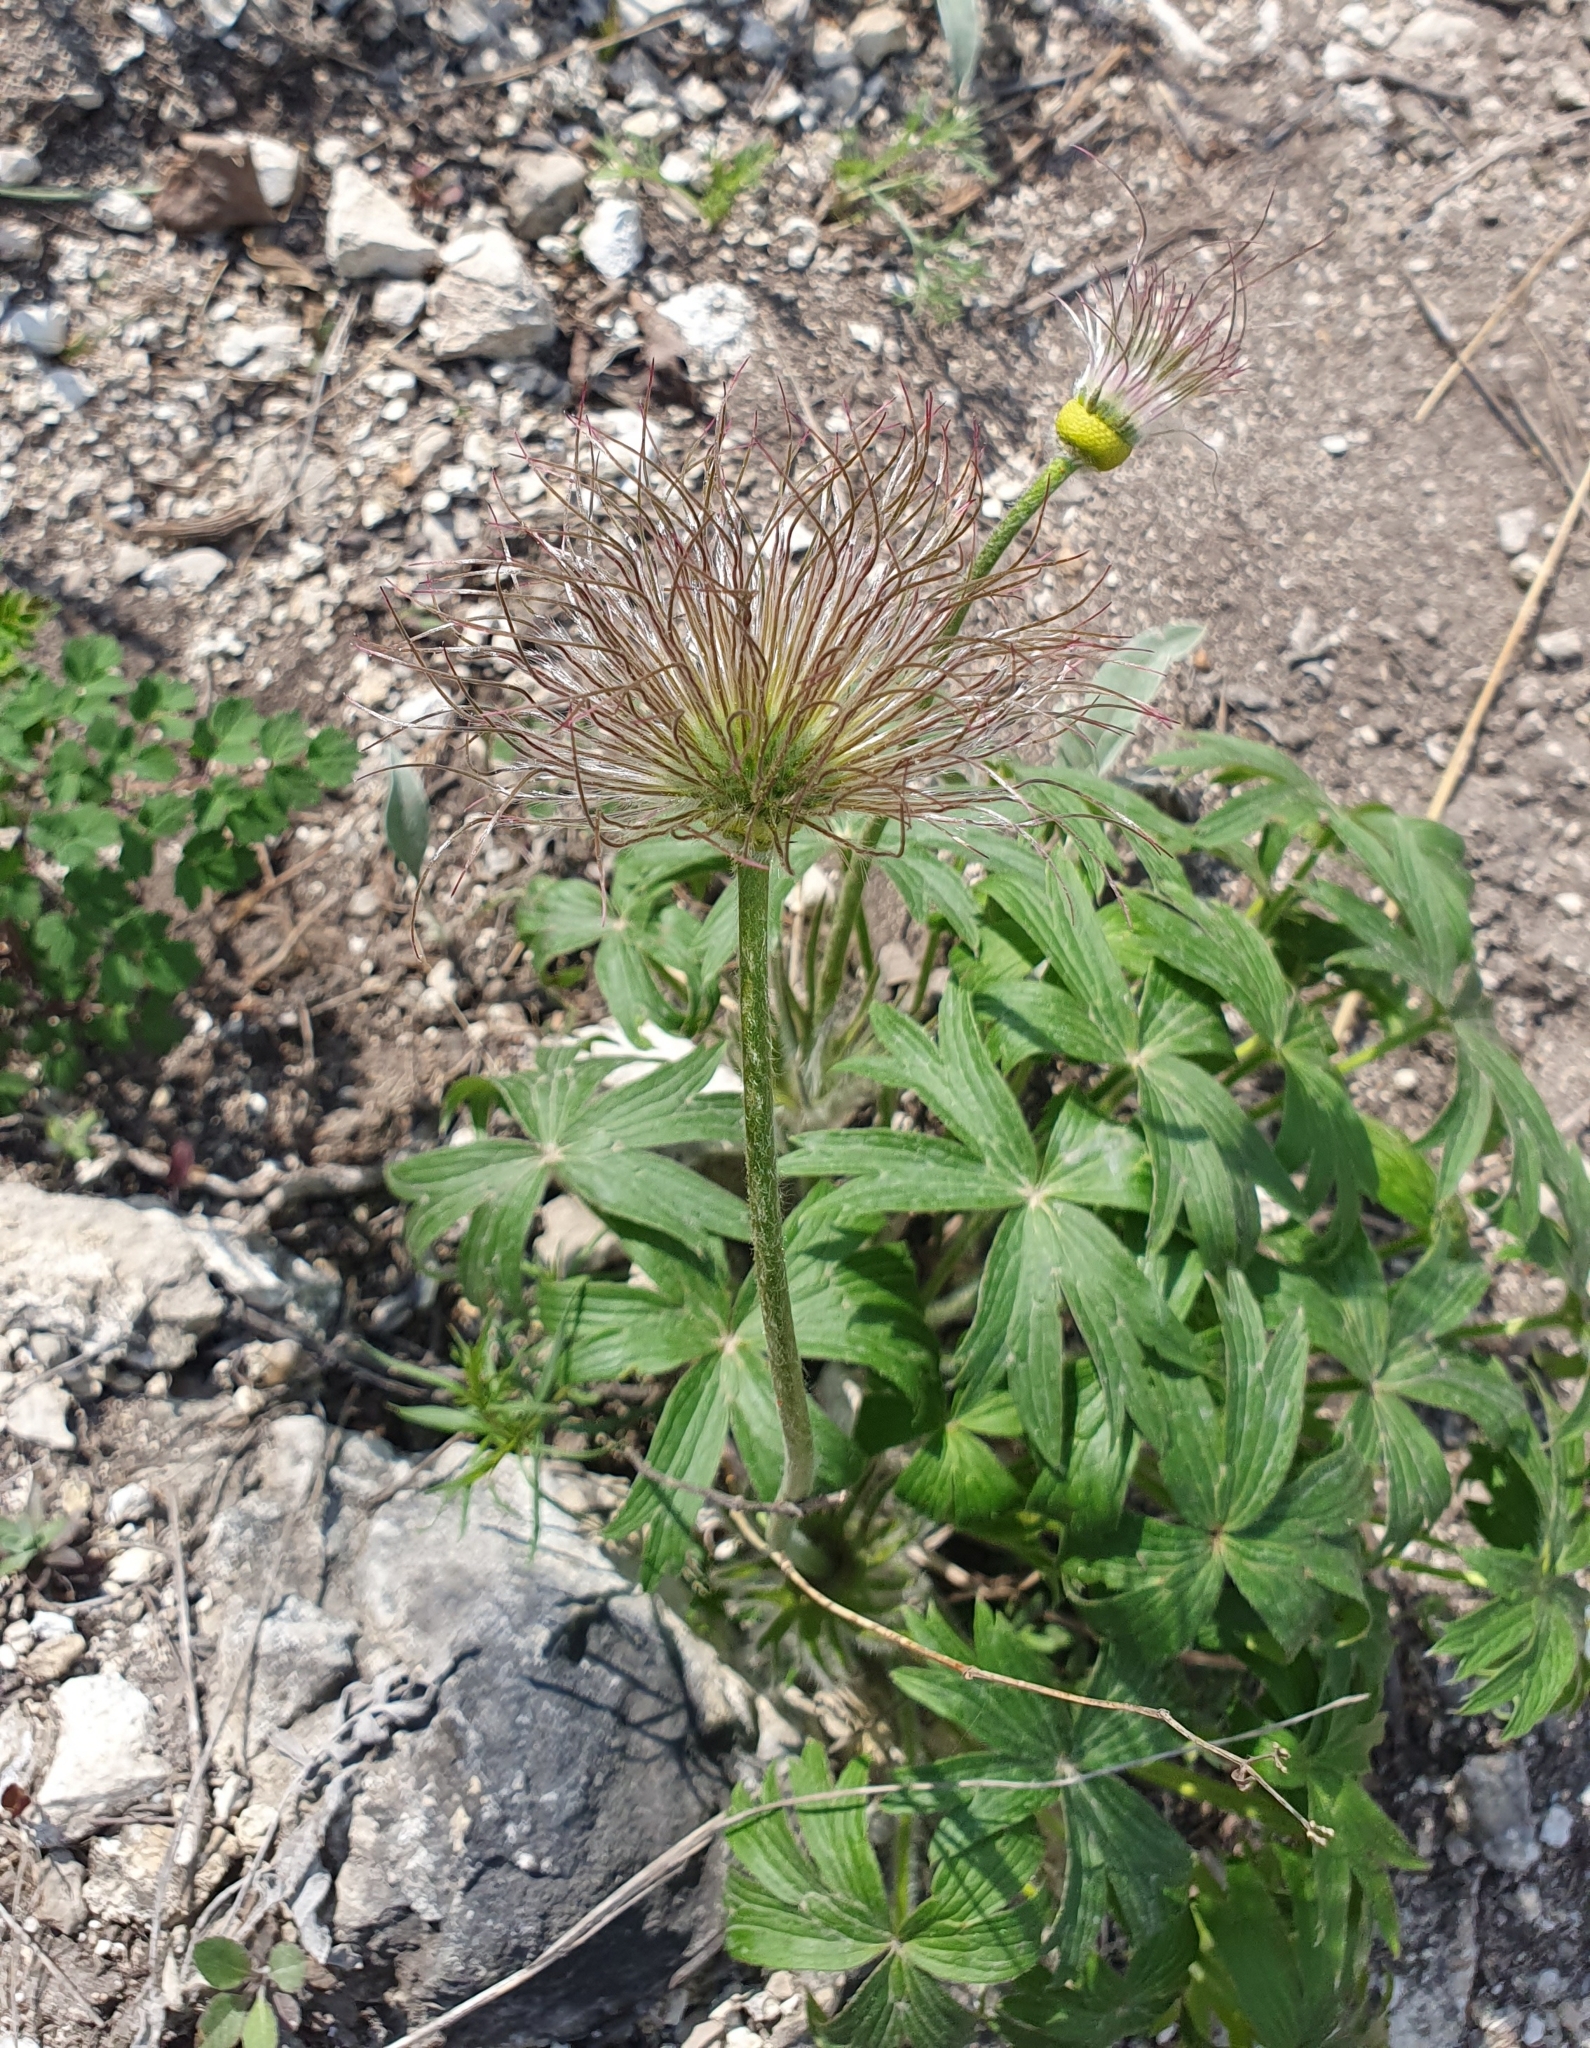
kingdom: Plantae
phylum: Tracheophyta
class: Magnoliopsida
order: Ranunculales
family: Ranunculaceae
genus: Pulsatilla
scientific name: Pulsatilla patens
